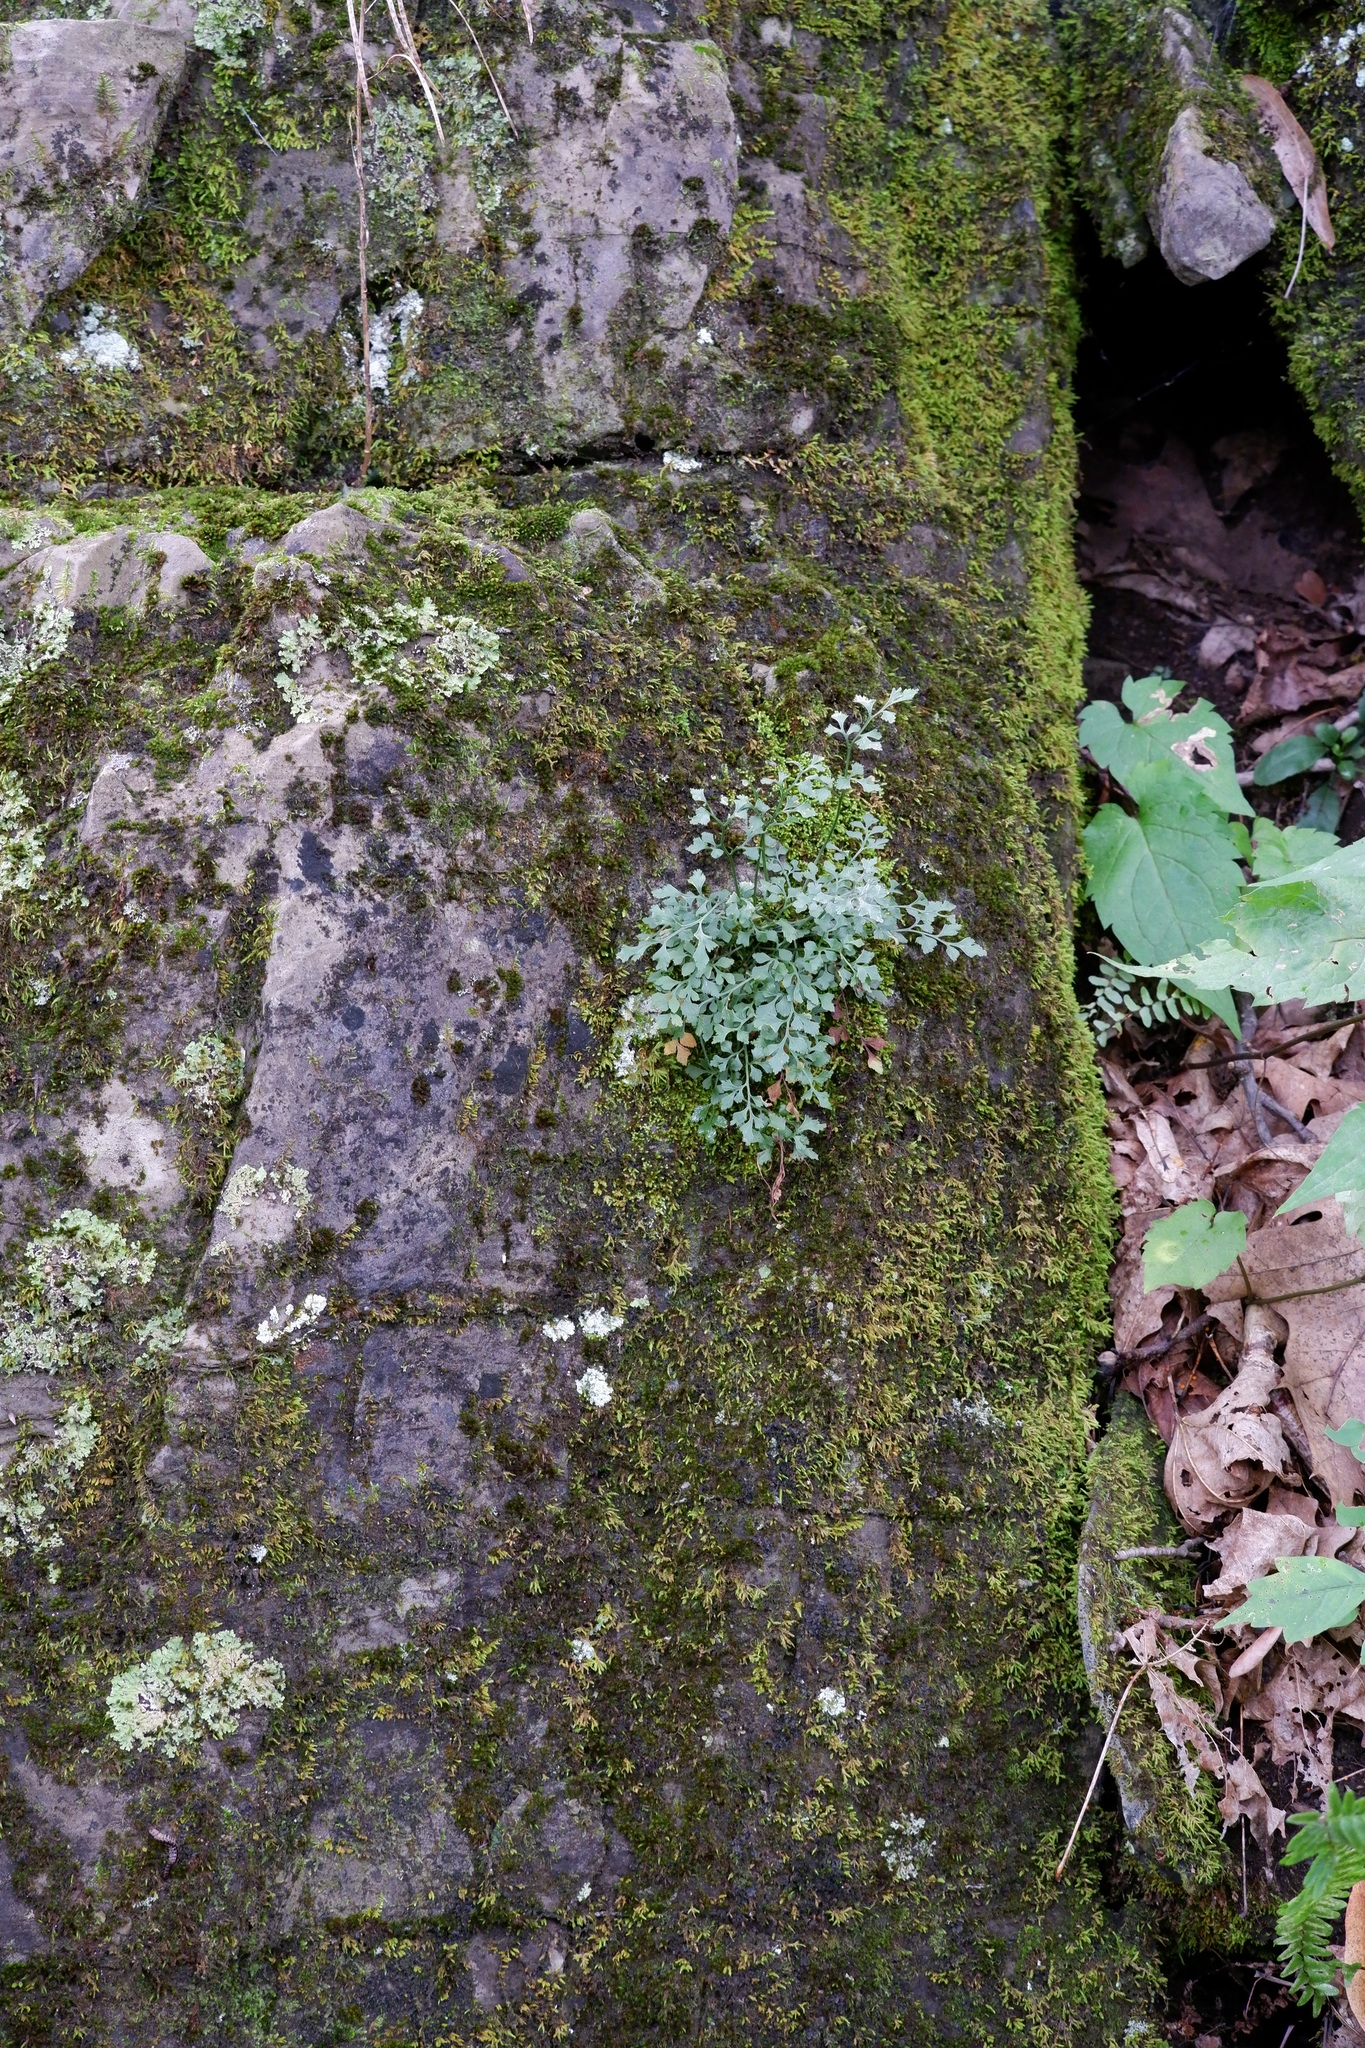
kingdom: Plantae
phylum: Tracheophyta
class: Polypodiopsida
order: Polypodiales
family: Aspleniaceae
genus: Asplenium
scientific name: Asplenium ruta-muraria
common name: Wall-rue
